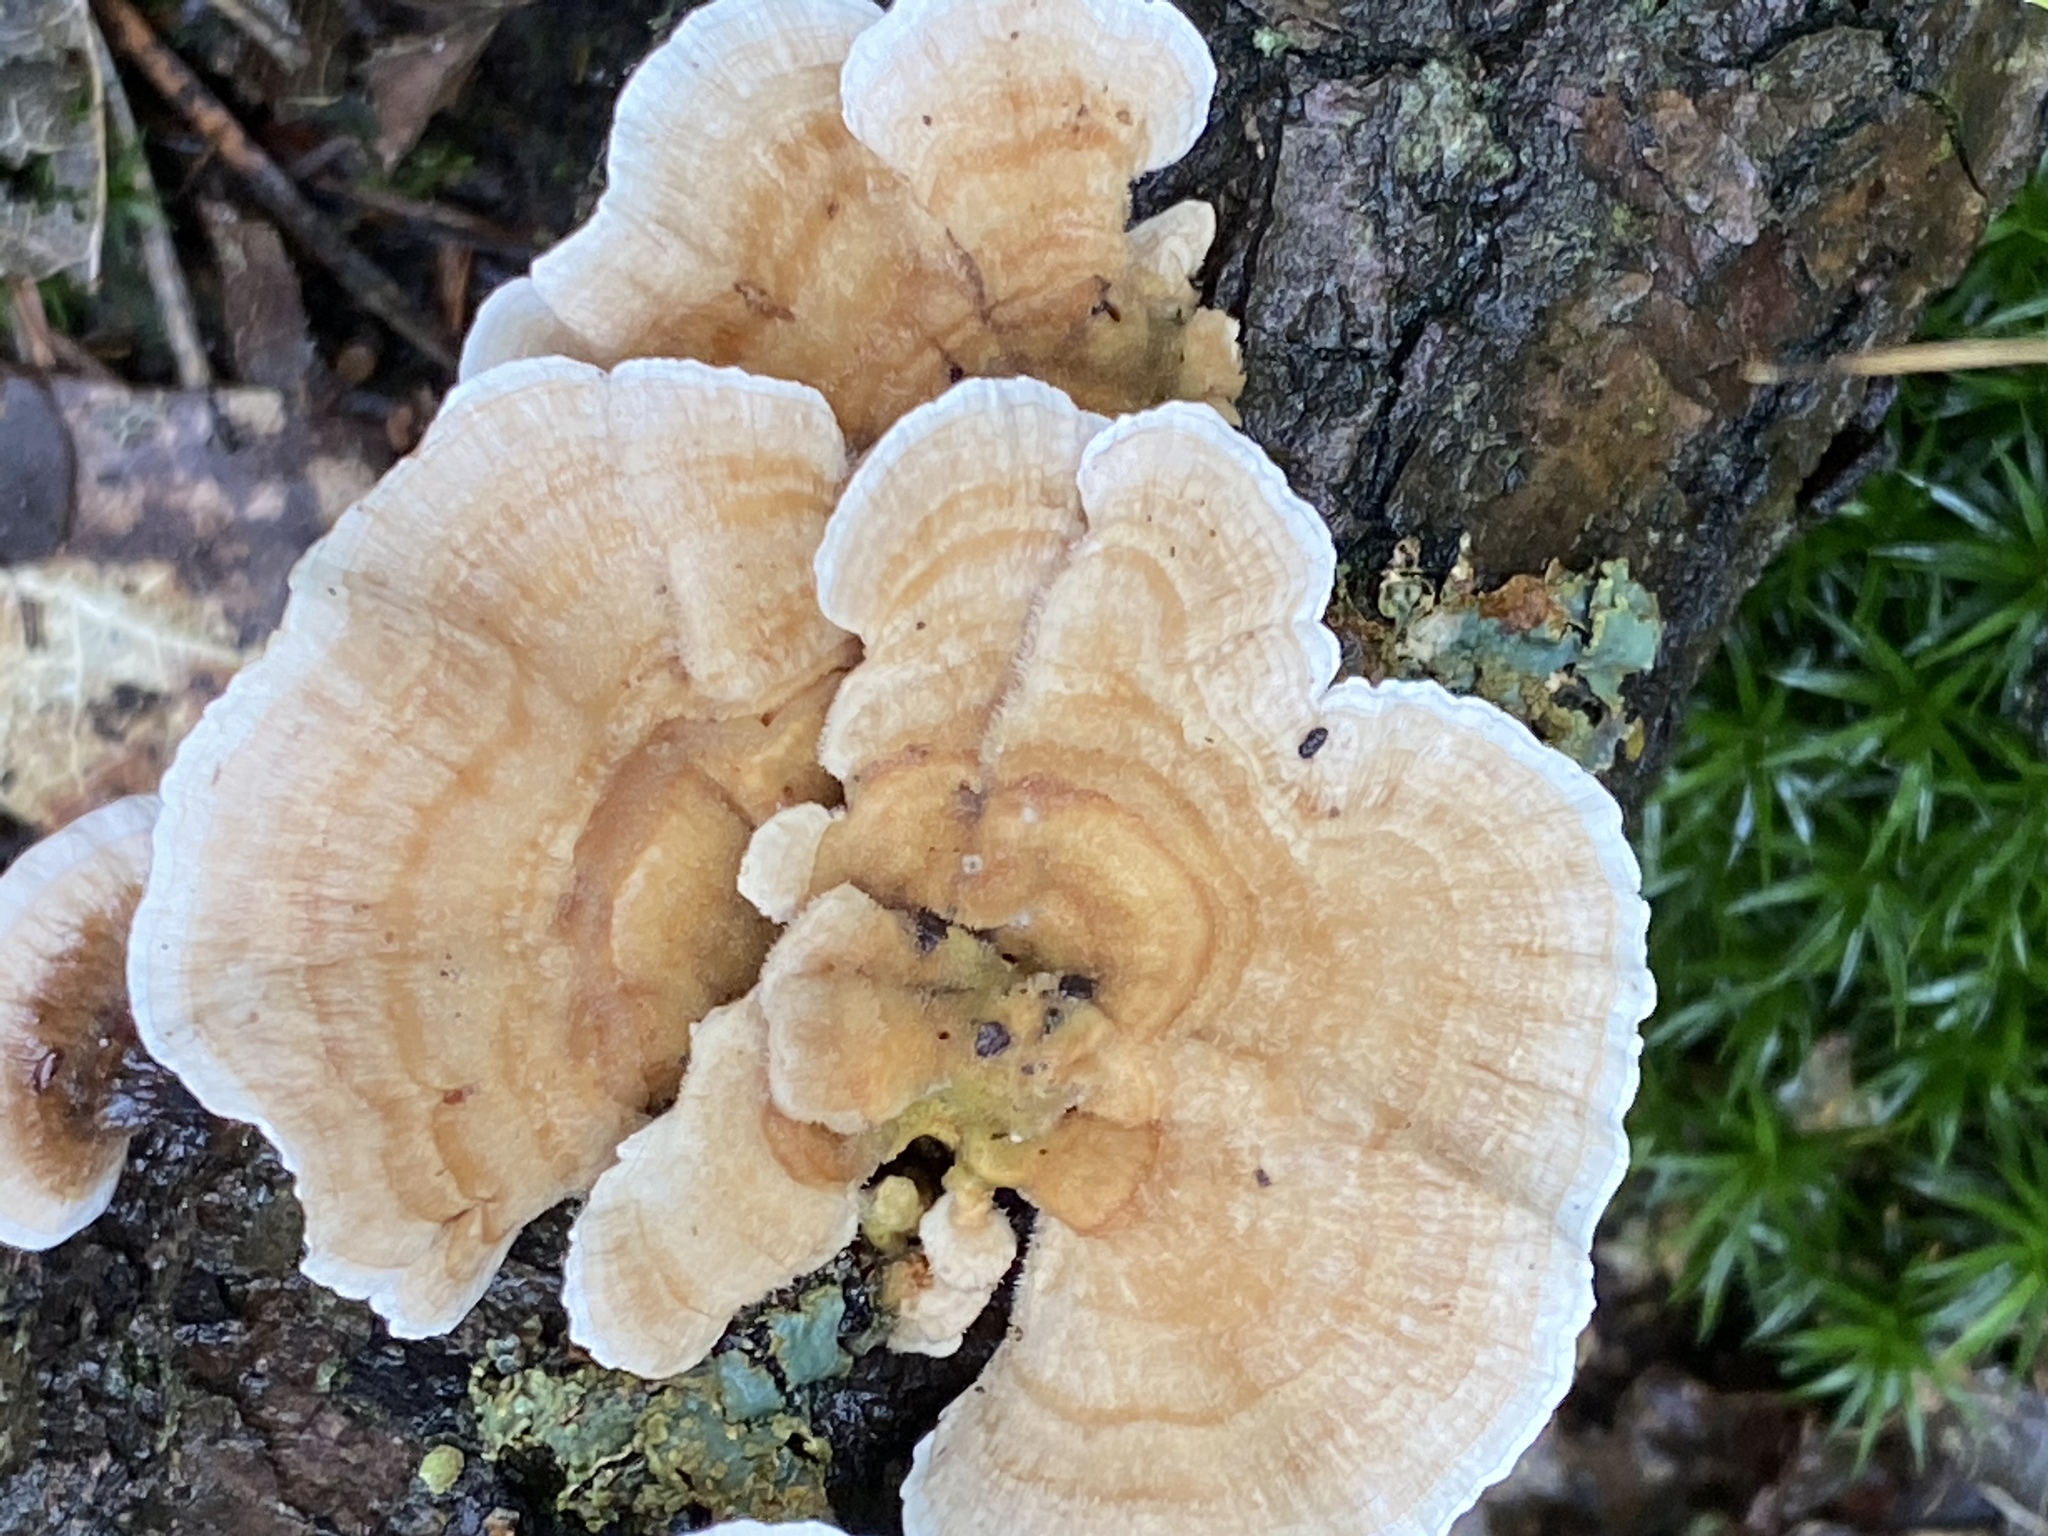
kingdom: Fungi
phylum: Basidiomycota
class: Agaricomycetes
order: Polyporales
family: Polyporaceae
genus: Trametes
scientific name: Trametes ochracea
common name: Ochre bracket
